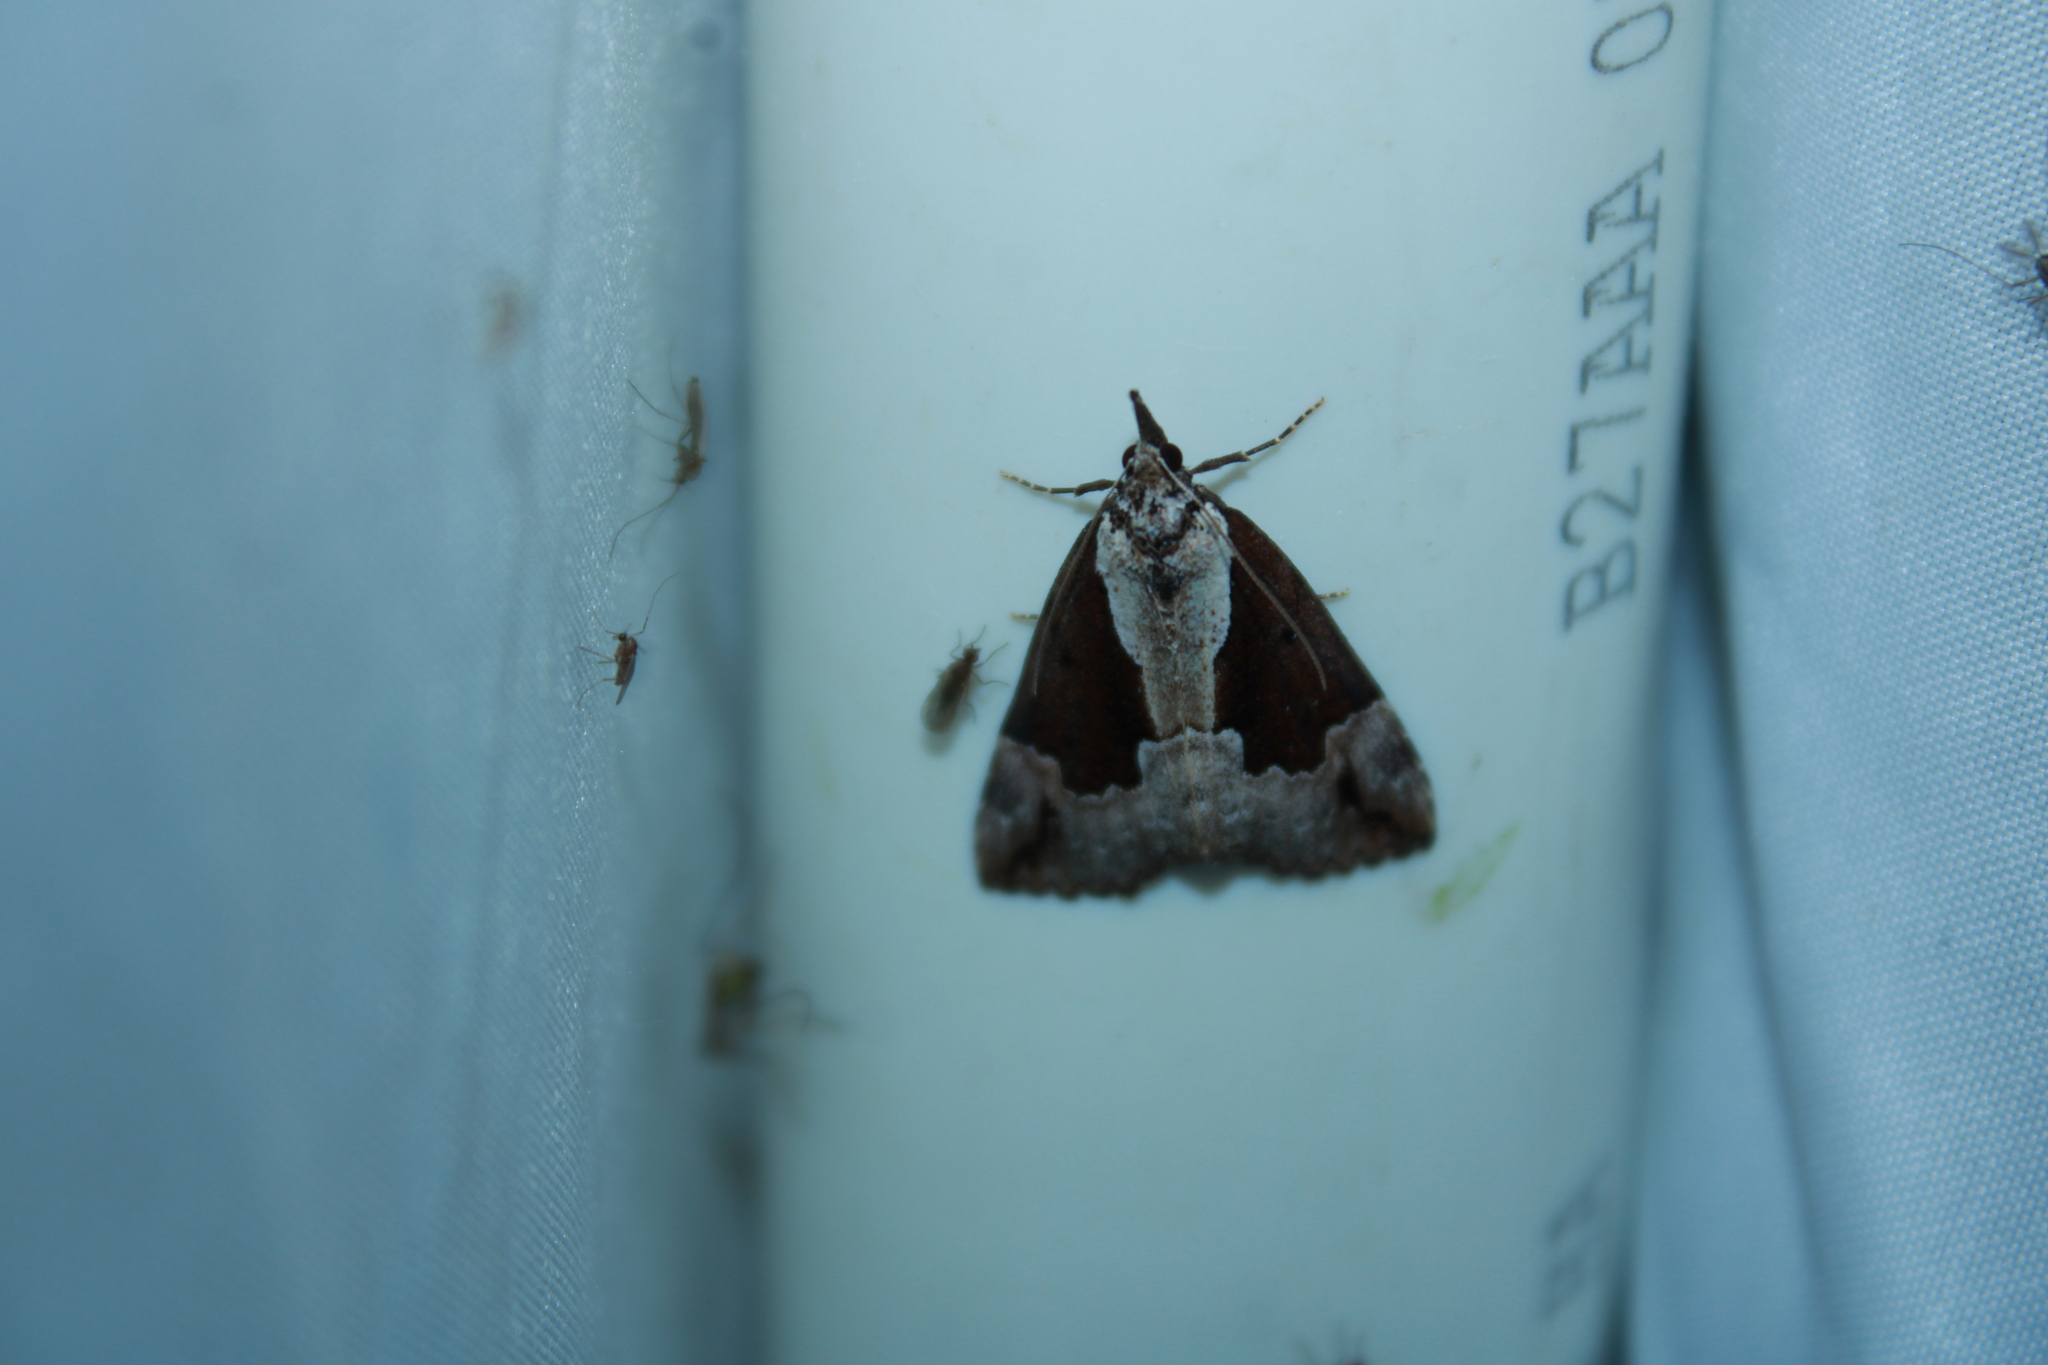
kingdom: Animalia
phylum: Arthropoda
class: Insecta
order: Lepidoptera
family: Erebidae
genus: Hypena
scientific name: Hypena baltimoralis
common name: Baltimore snout
